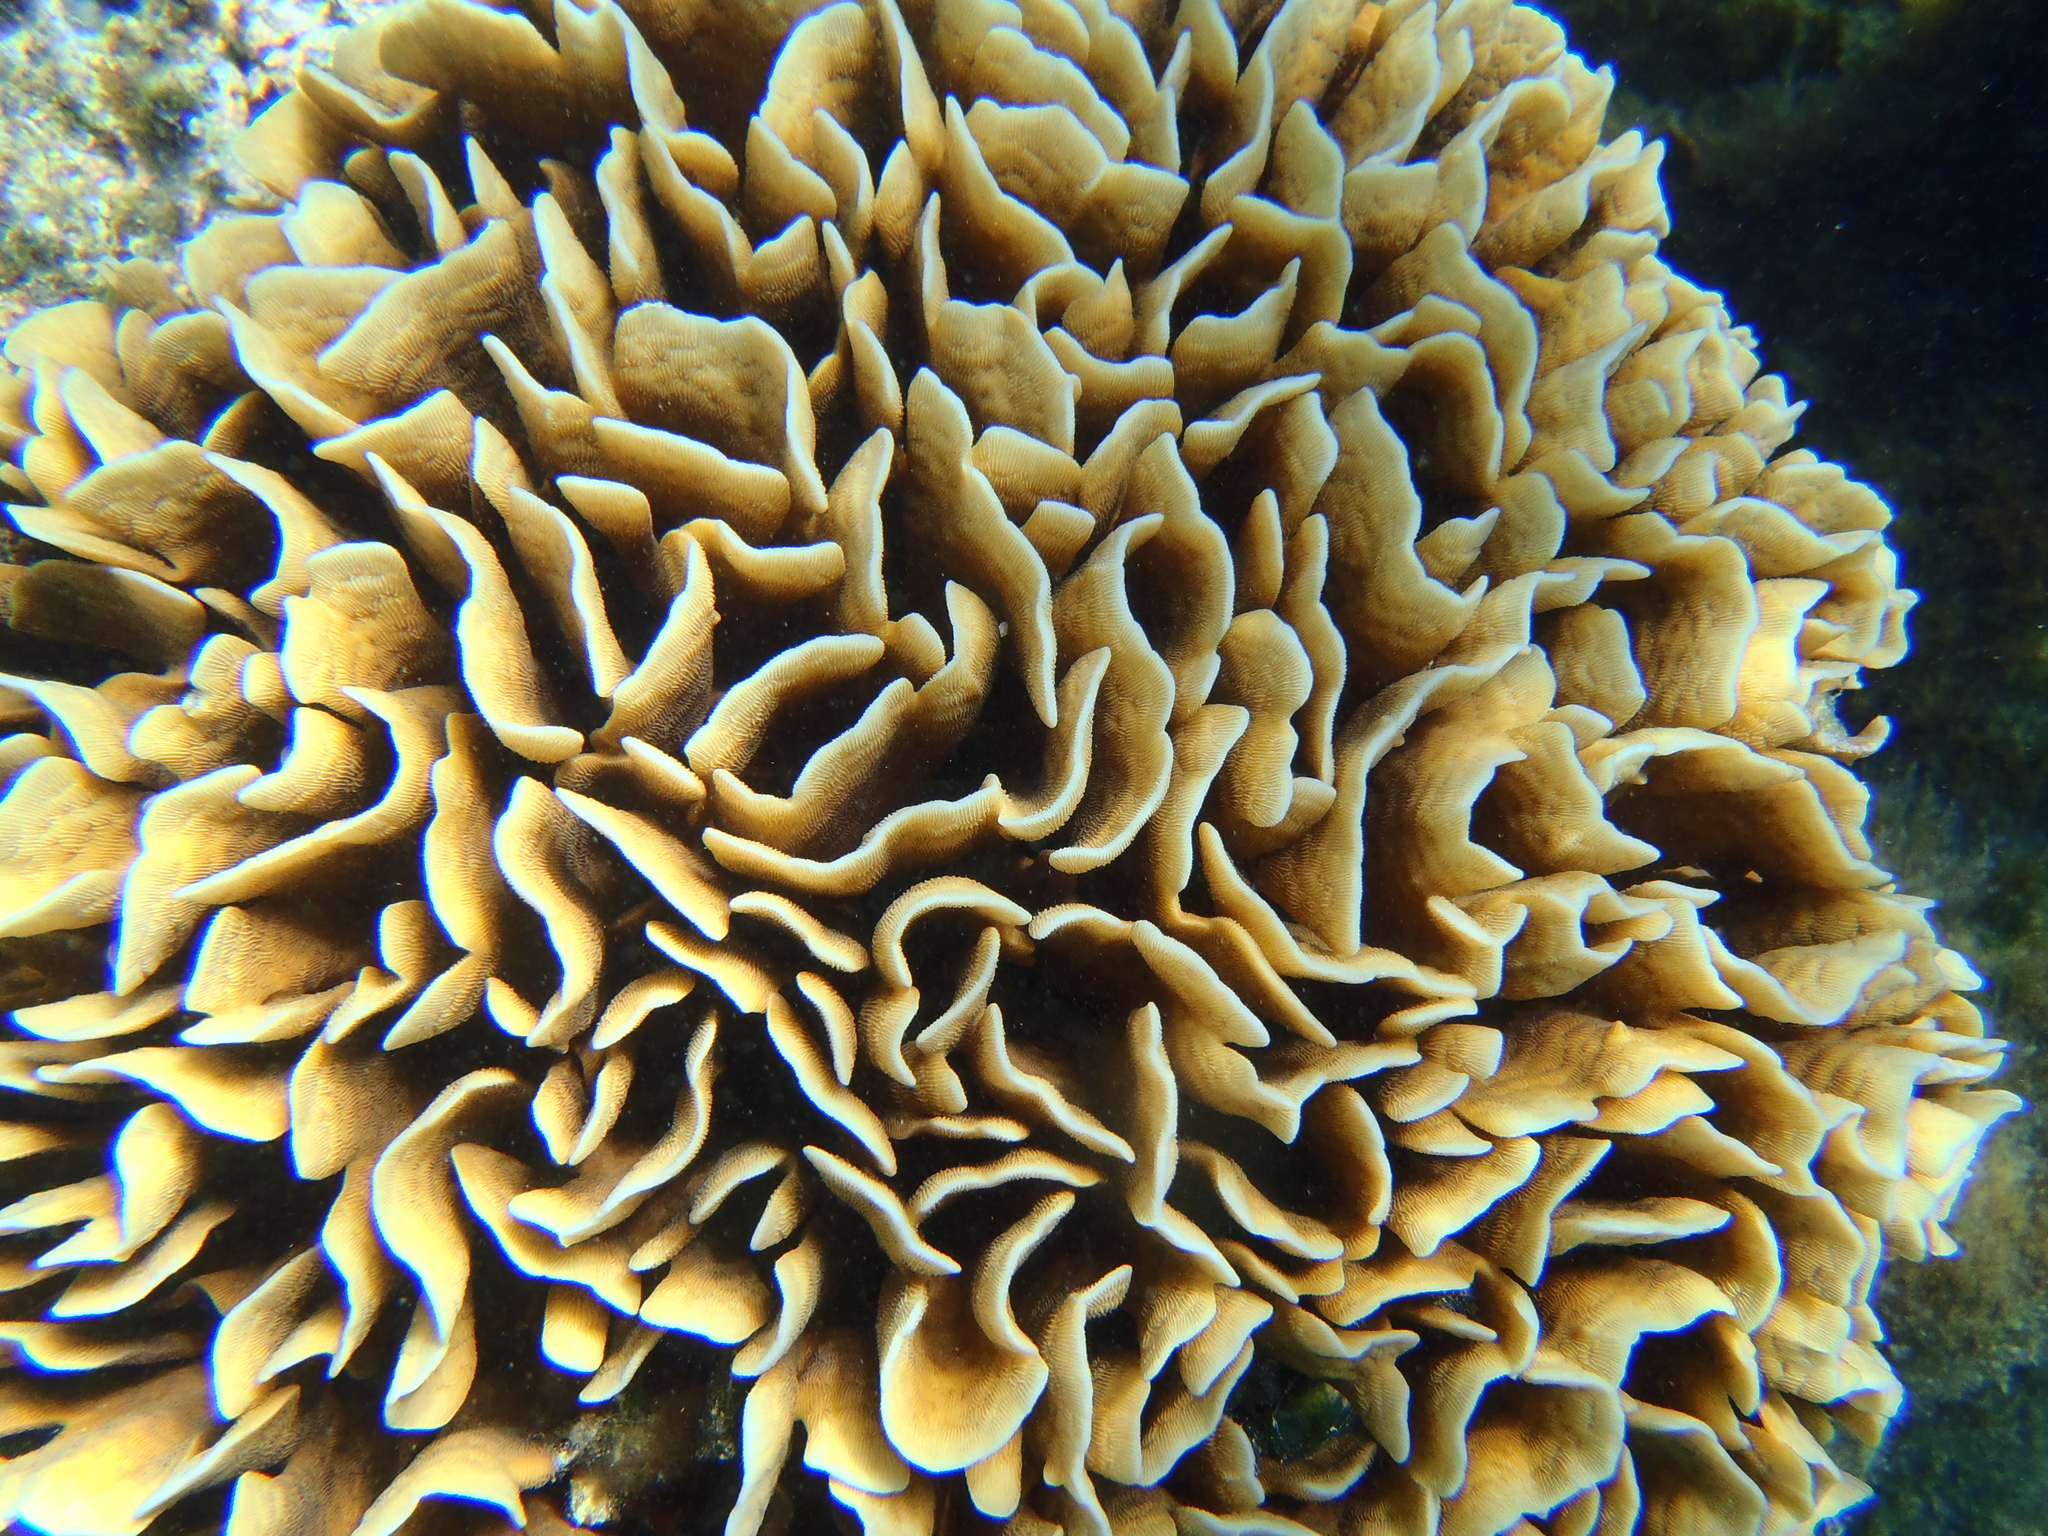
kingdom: Animalia
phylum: Cnidaria
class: Anthozoa
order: Scleractinia
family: Agariciidae
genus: Pavona
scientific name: Pavona cactus
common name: Leaf coral
